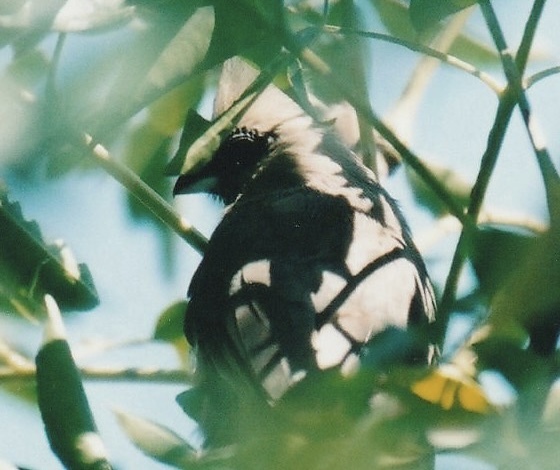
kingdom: Animalia
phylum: Chordata
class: Aves
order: Coliiformes
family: Coliidae
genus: Colius
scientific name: Colius striatus
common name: Speckled mousebird
